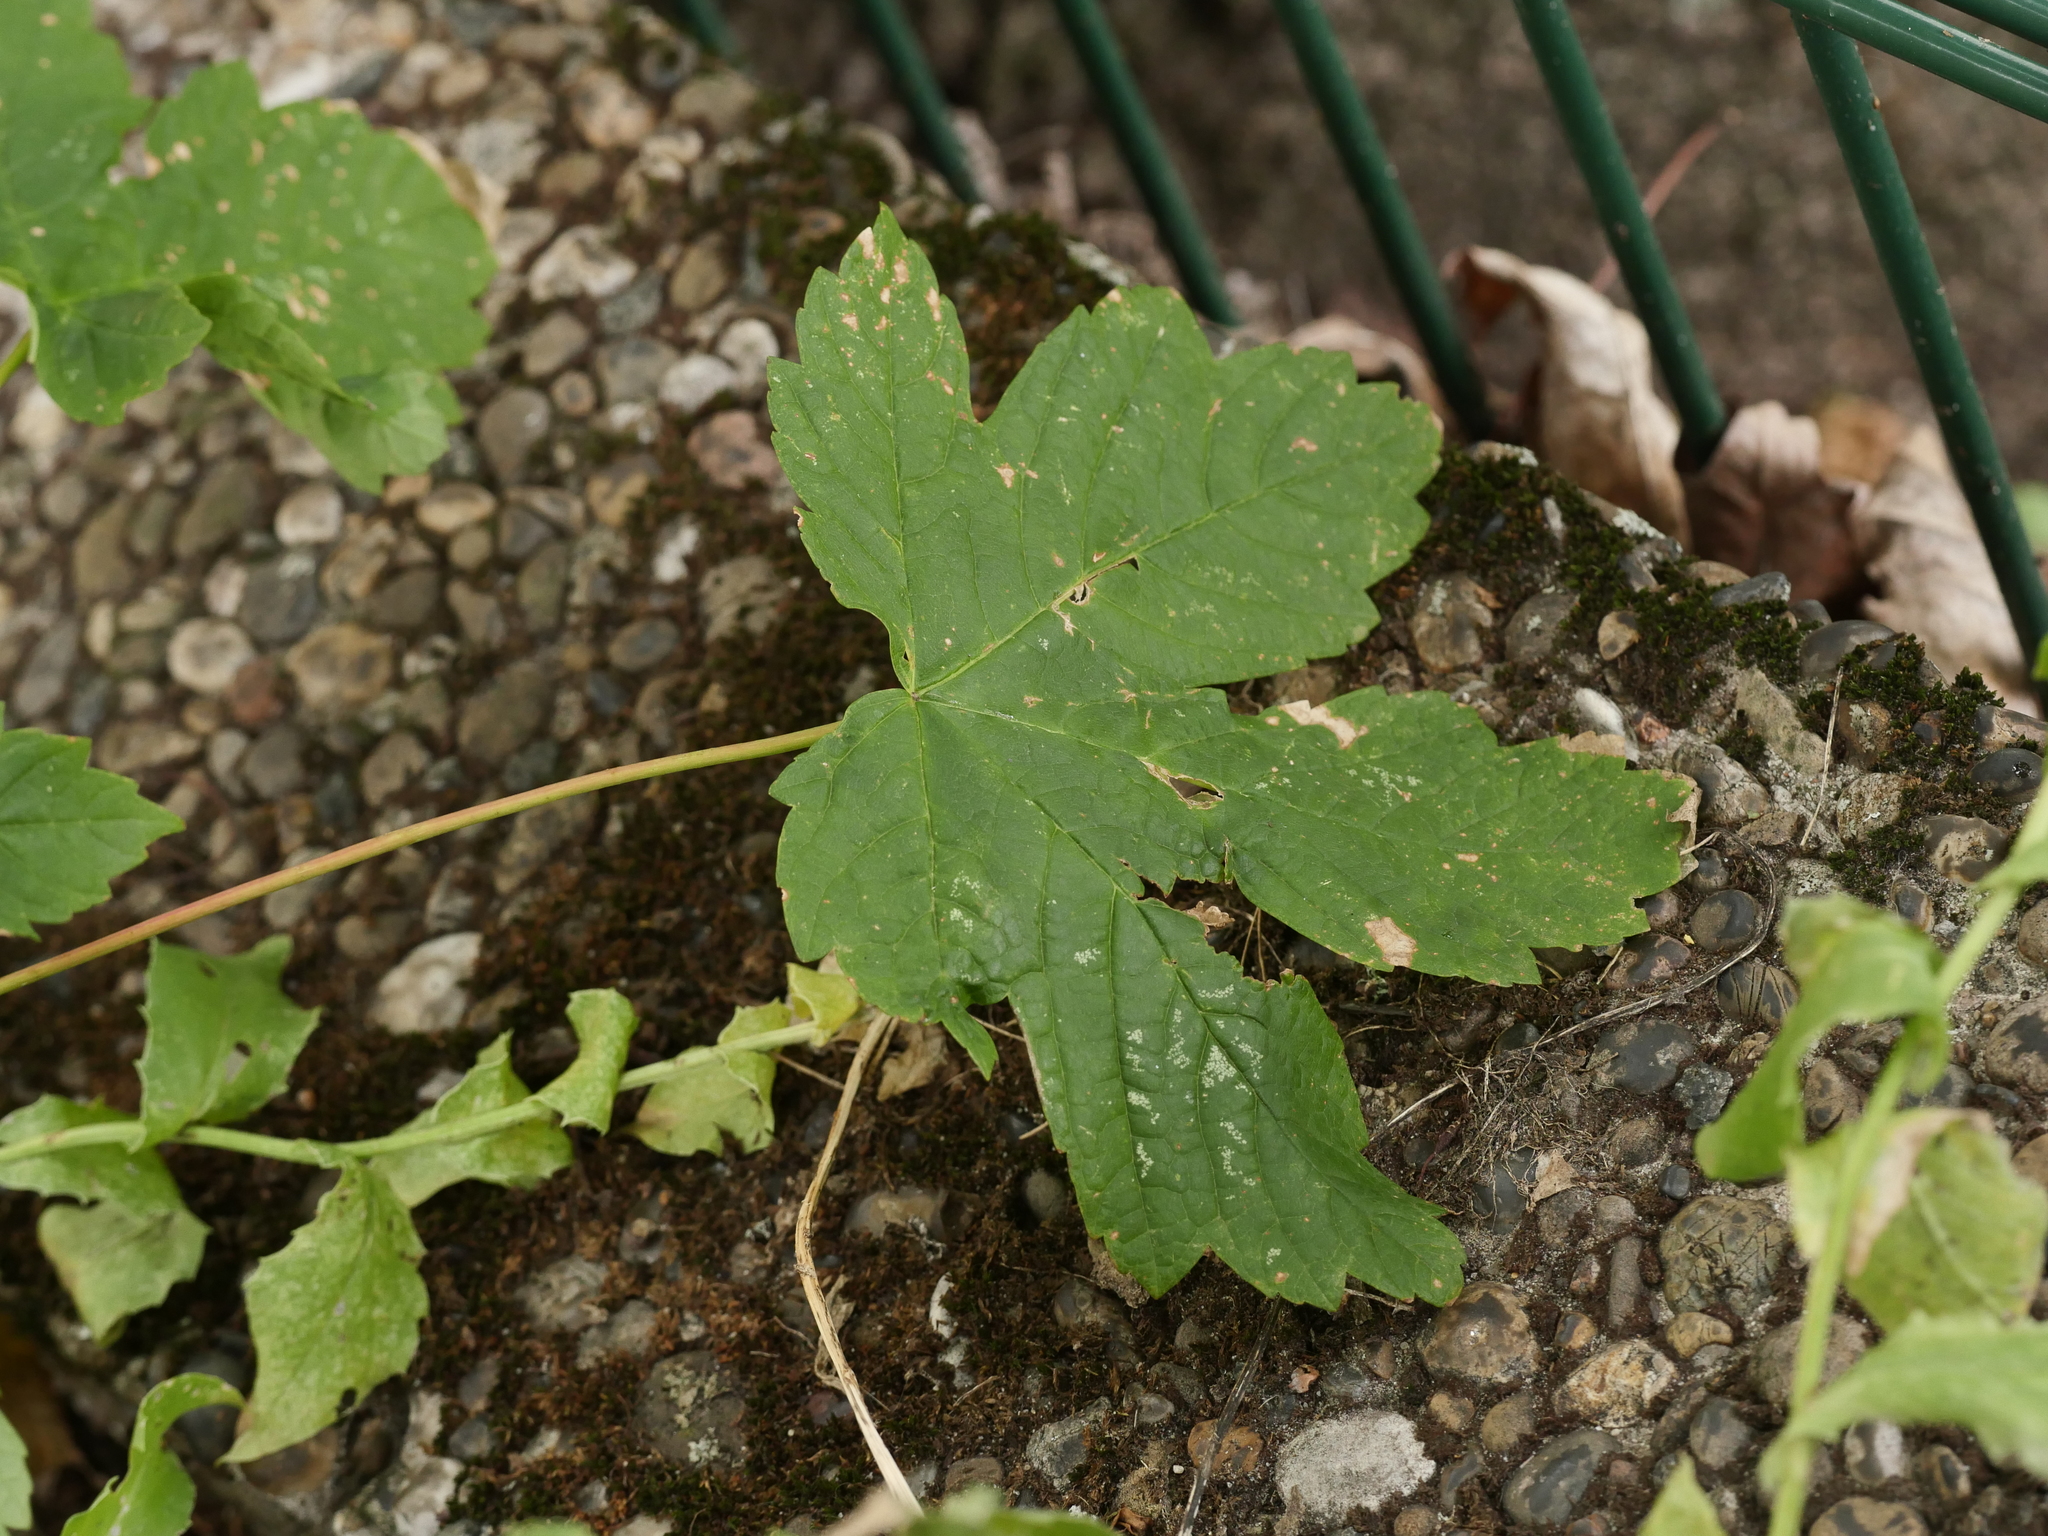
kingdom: Plantae
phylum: Tracheophyta
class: Magnoliopsida
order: Sapindales
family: Sapindaceae
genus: Acer
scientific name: Acer pseudoplatanus
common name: Sycamore
